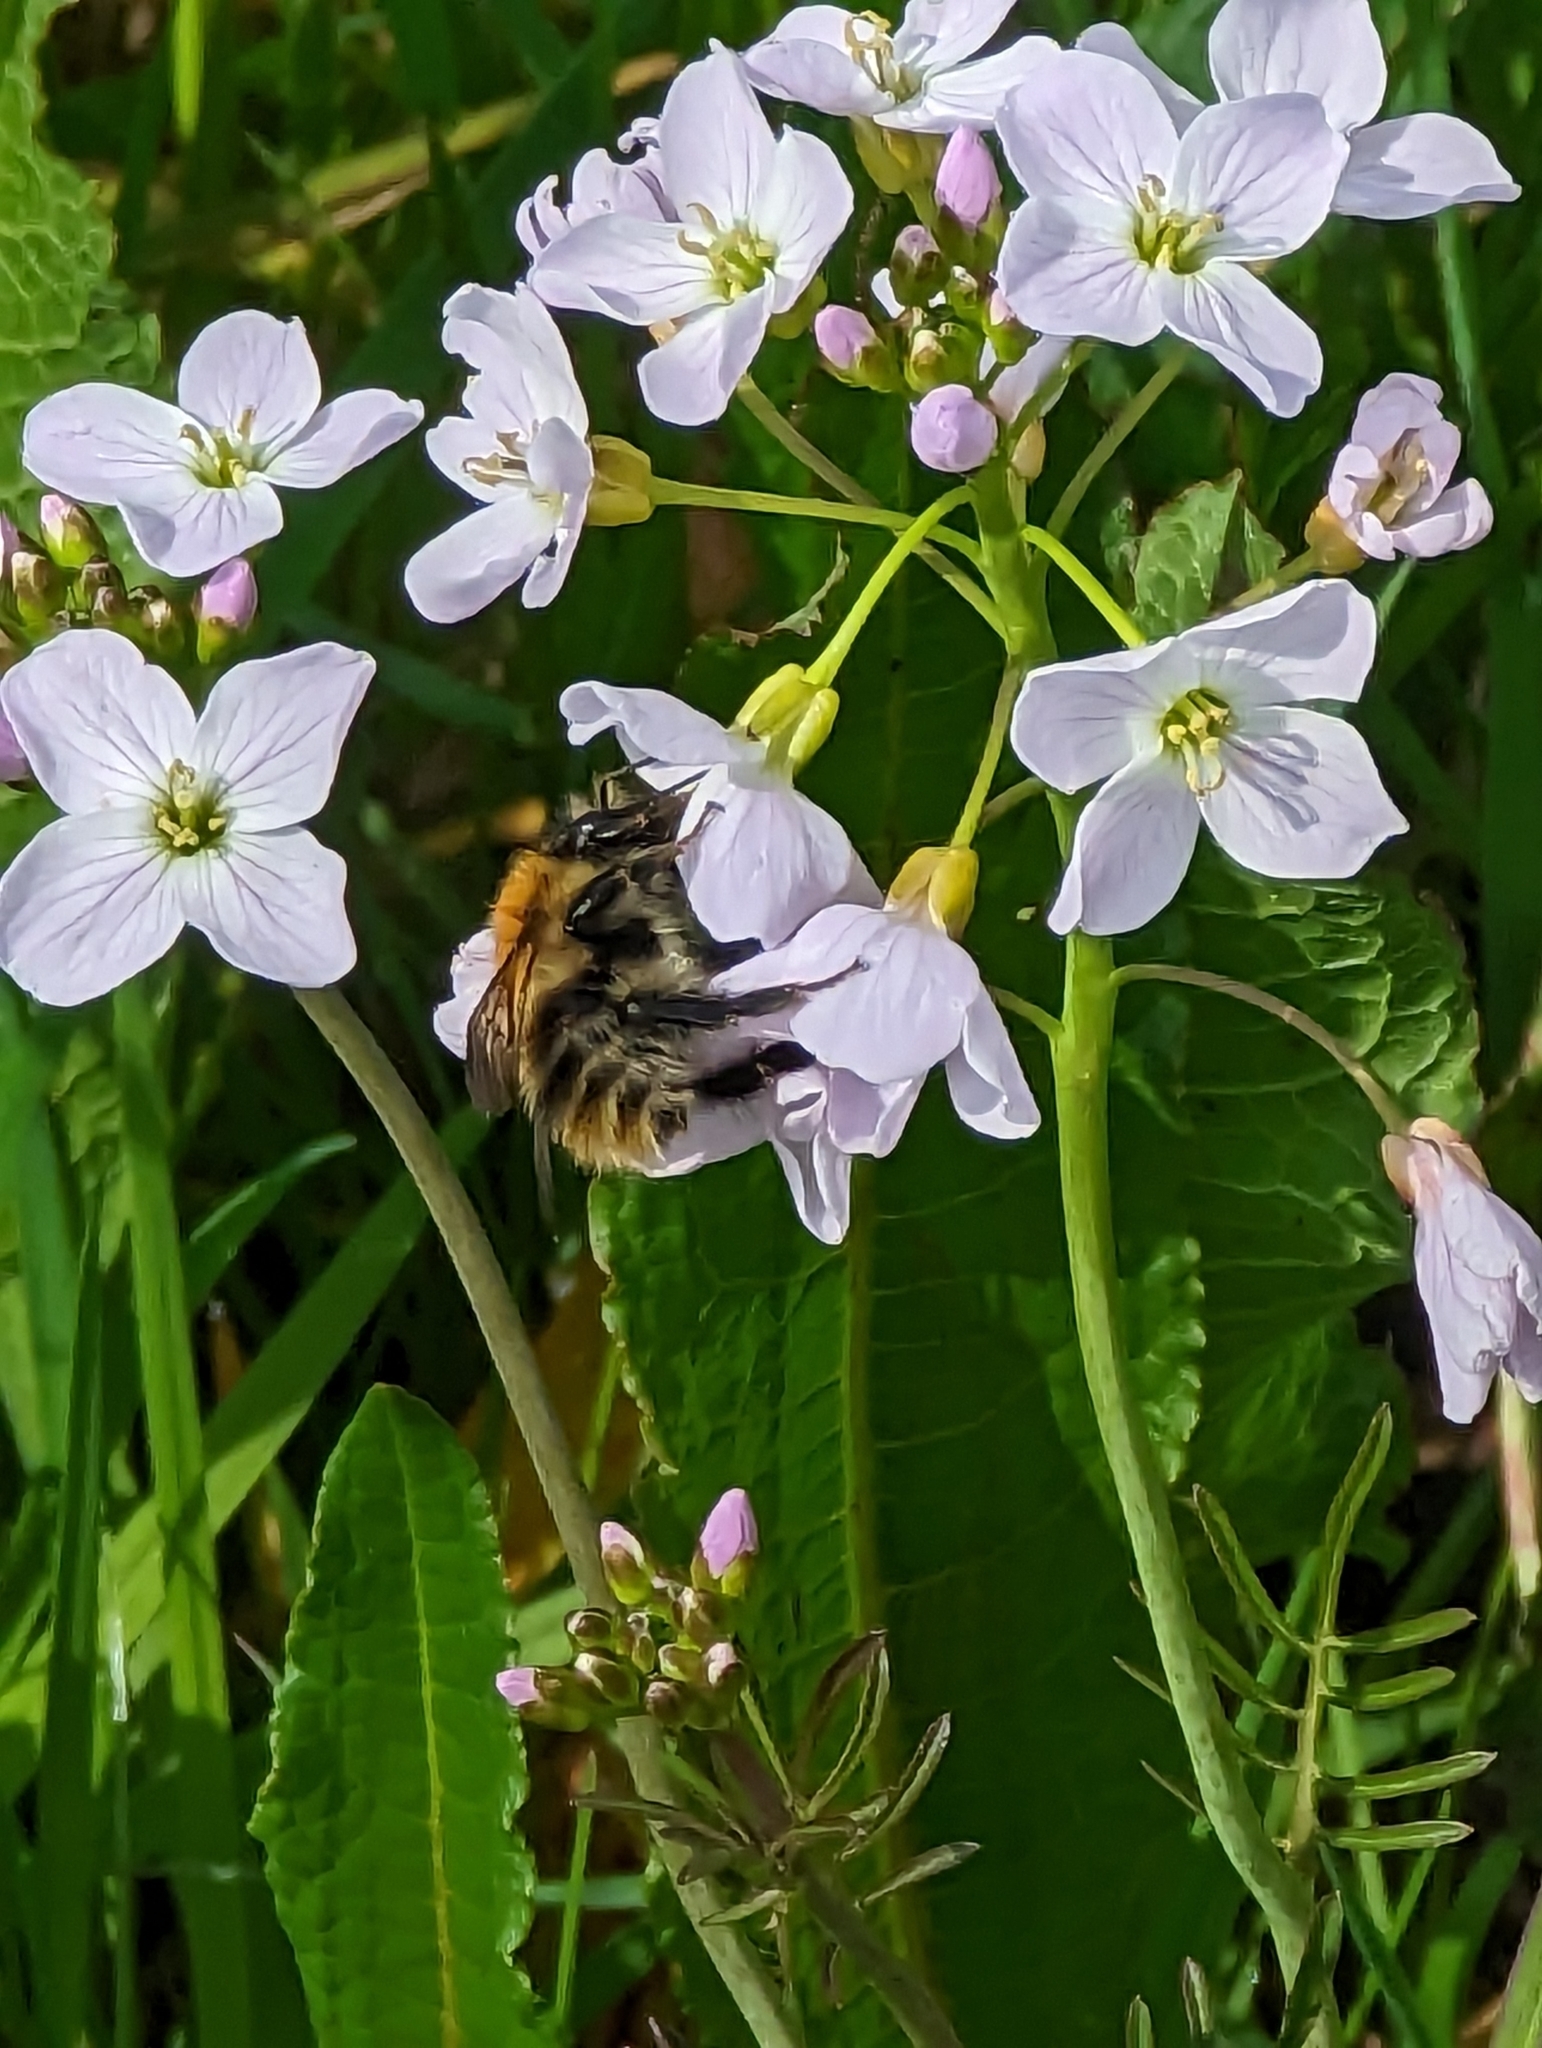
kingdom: Animalia
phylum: Arthropoda
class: Insecta
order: Hymenoptera
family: Apidae
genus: Bombus
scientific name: Bombus pascuorum
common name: Common carder bee
